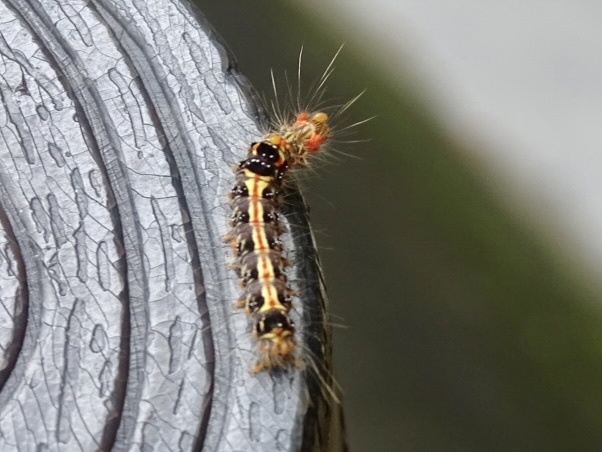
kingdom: Animalia
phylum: Arthropoda
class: Insecta
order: Lepidoptera
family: Erebidae
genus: Orvasca
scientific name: Orvasca subnotata
